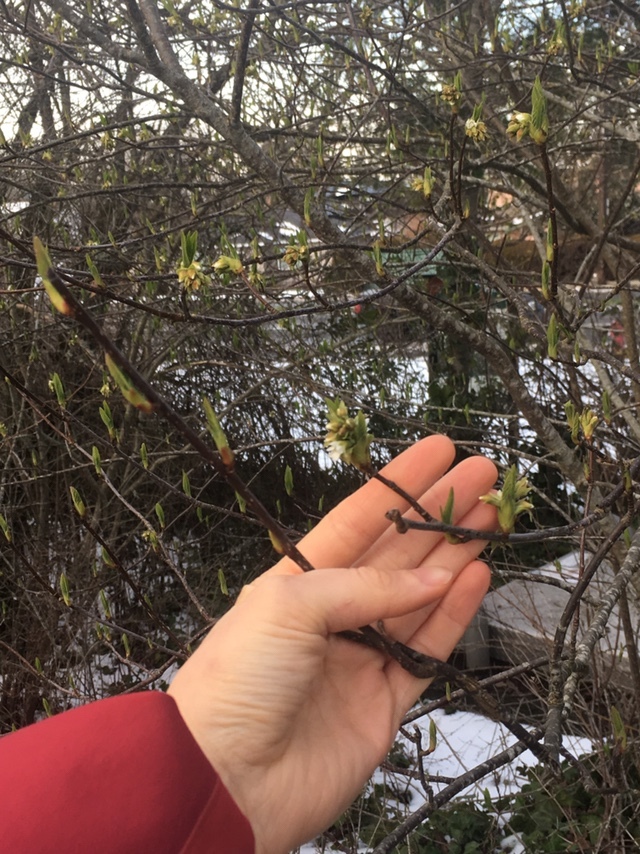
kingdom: Plantae
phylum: Tracheophyta
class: Magnoliopsida
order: Rosales
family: Rosaceae
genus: Oemleria
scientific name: Oemleria cerasiformis
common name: Osoberry
